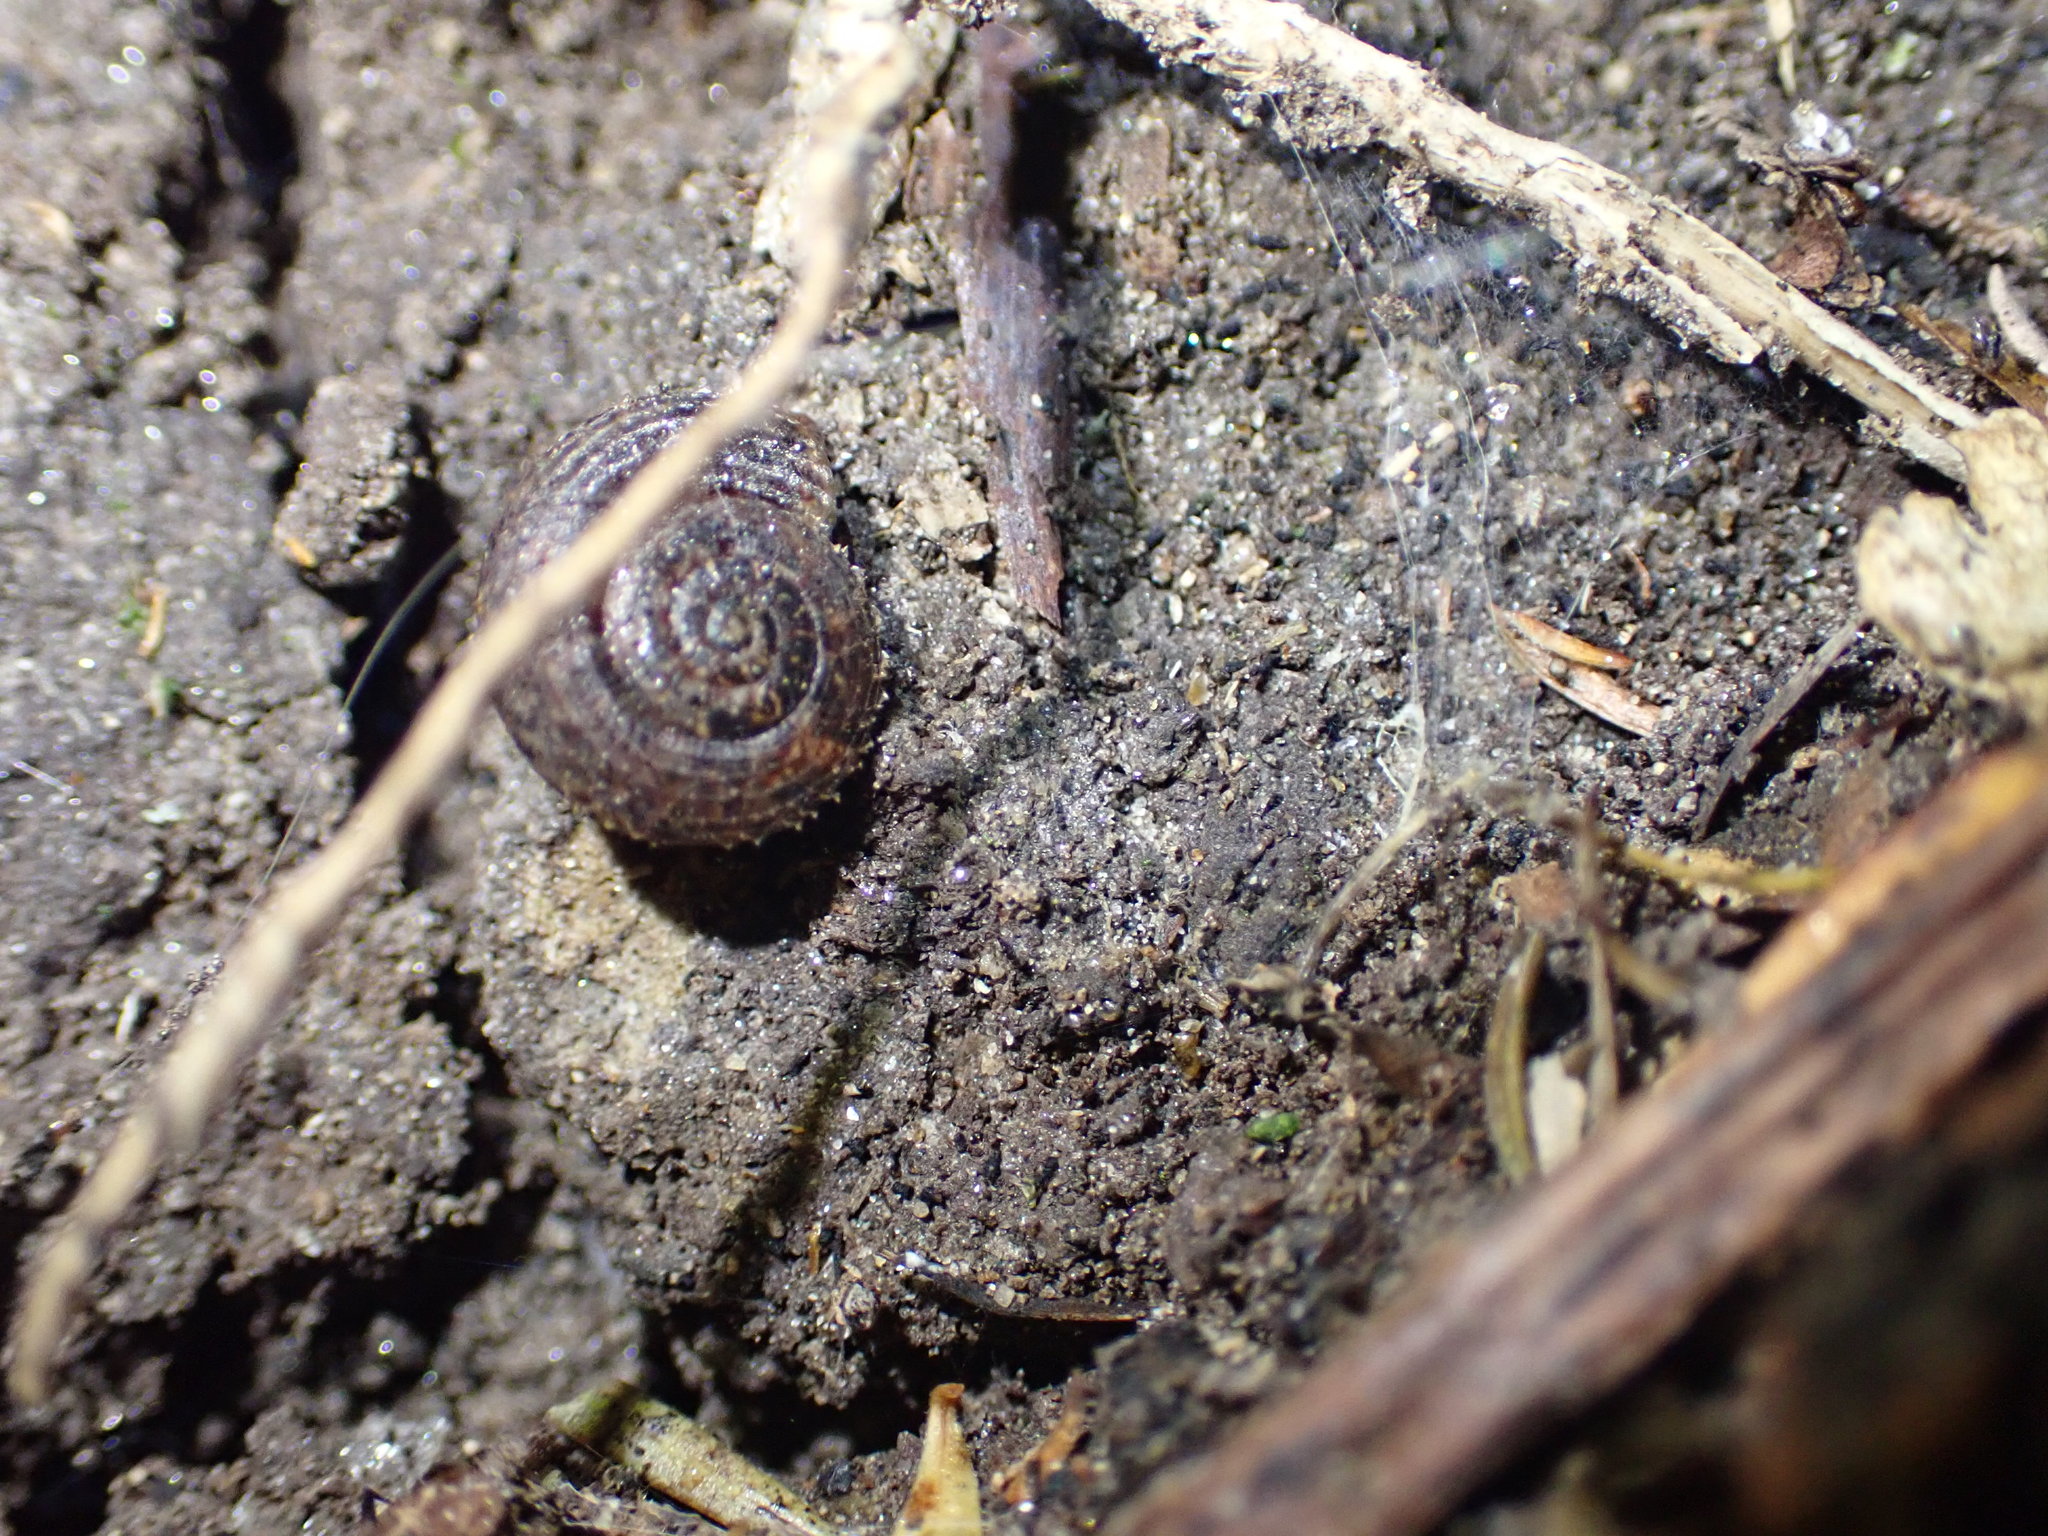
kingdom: Animalia
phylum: Mollusca
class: Gastropoda
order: Stylommatophora
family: Charopidae
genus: Thalassohelix
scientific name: Thalassohelix igniflua
